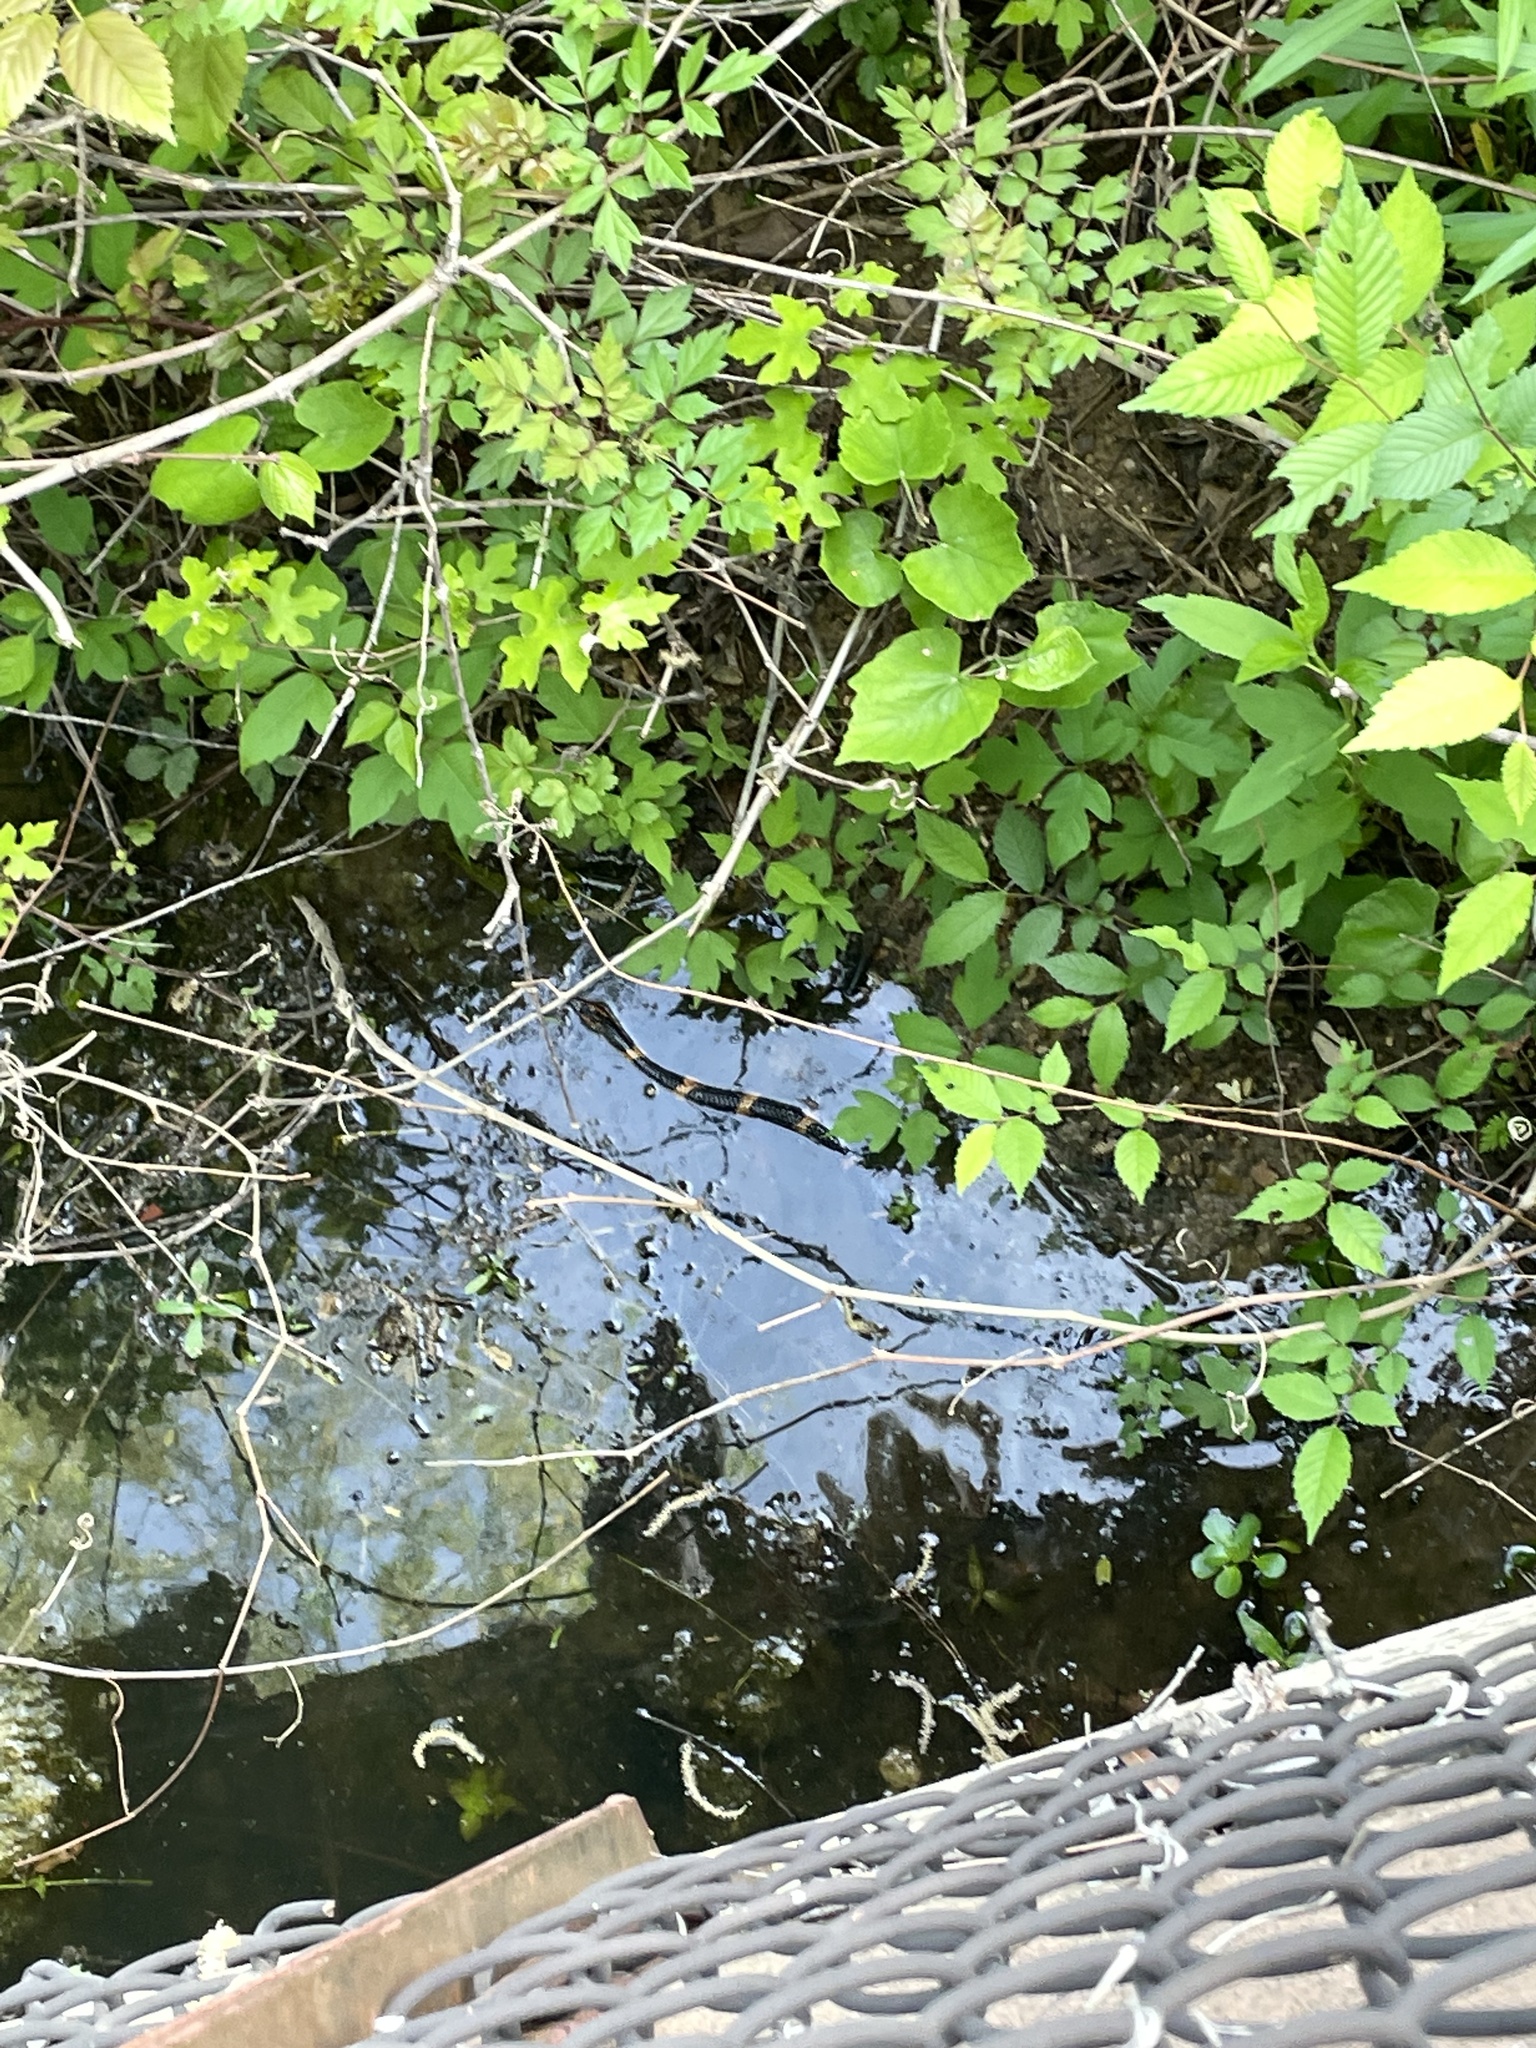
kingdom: Animalia
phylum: Chordata
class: Squamata
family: Colubridae
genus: Nerodia
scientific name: Nerodia fasciata
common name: Southern water snake
